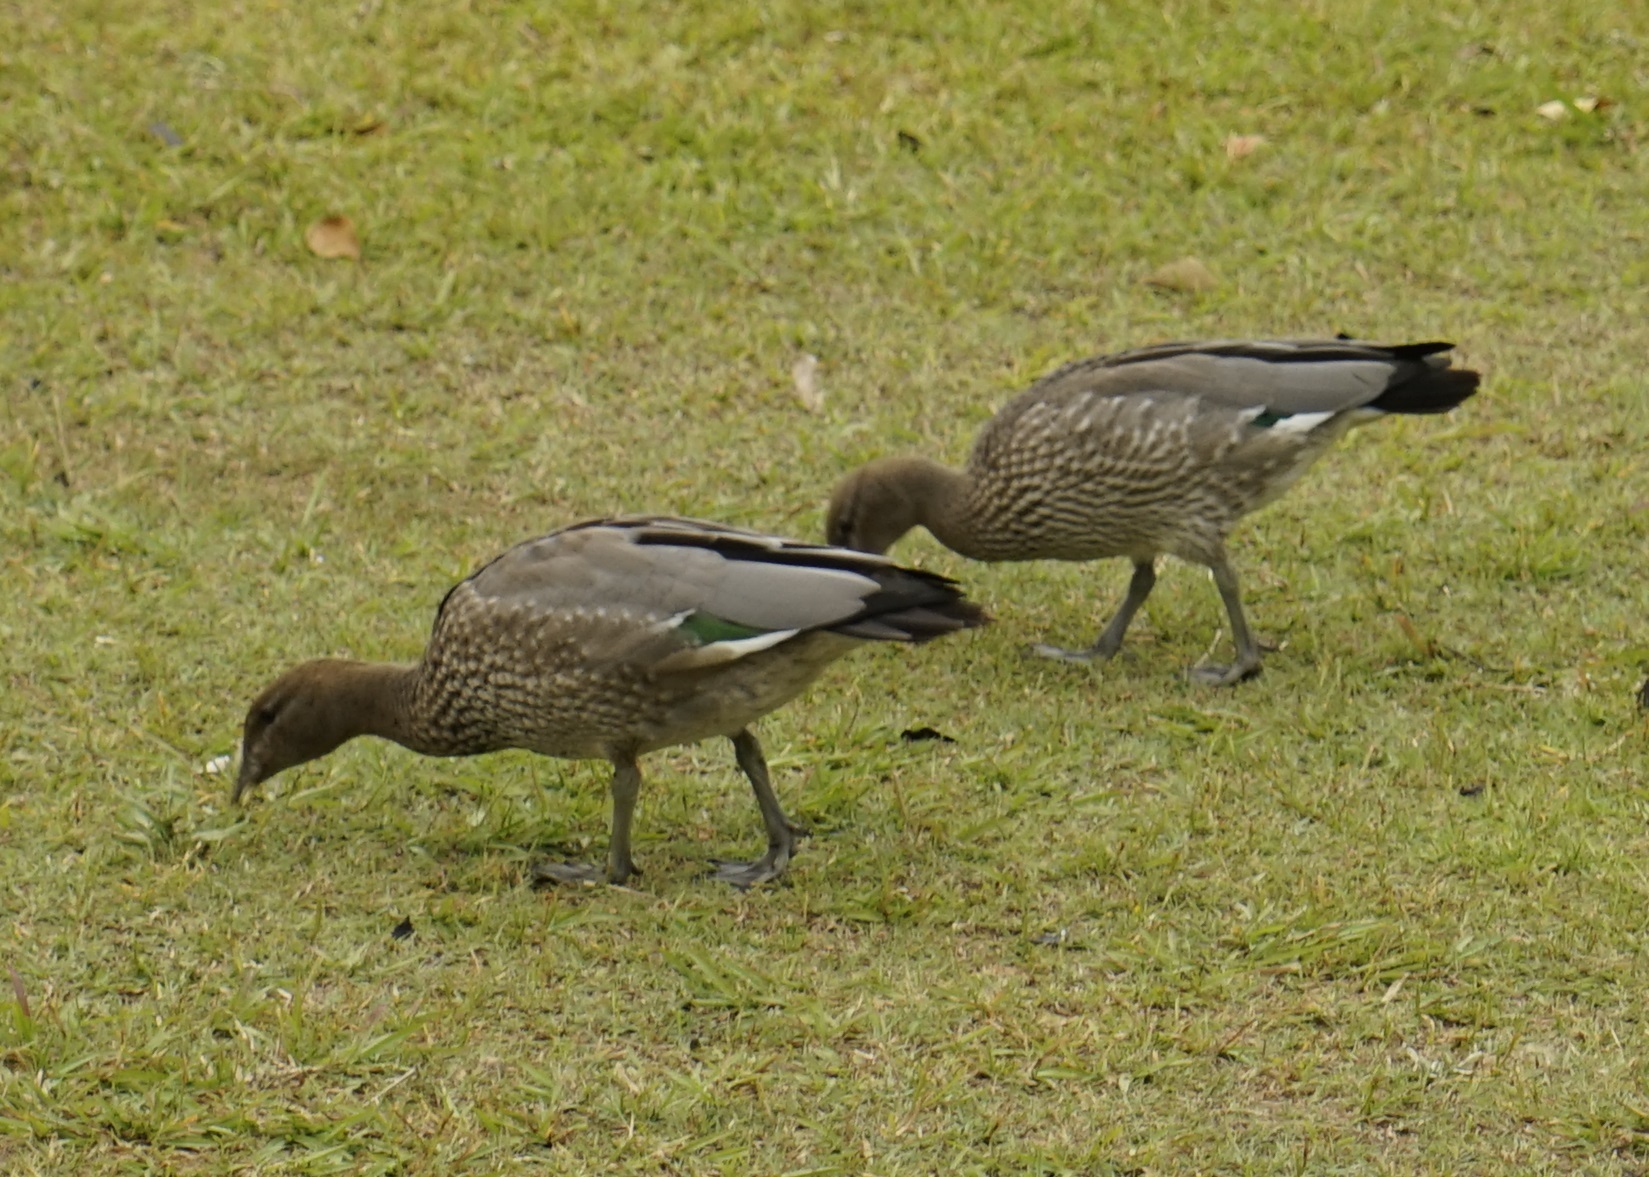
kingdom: Animalia
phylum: Chordata
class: Aves
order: Anseriformes
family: Anatidae
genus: Chenonetta
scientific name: Chenonetta jubata
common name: Maned duck
